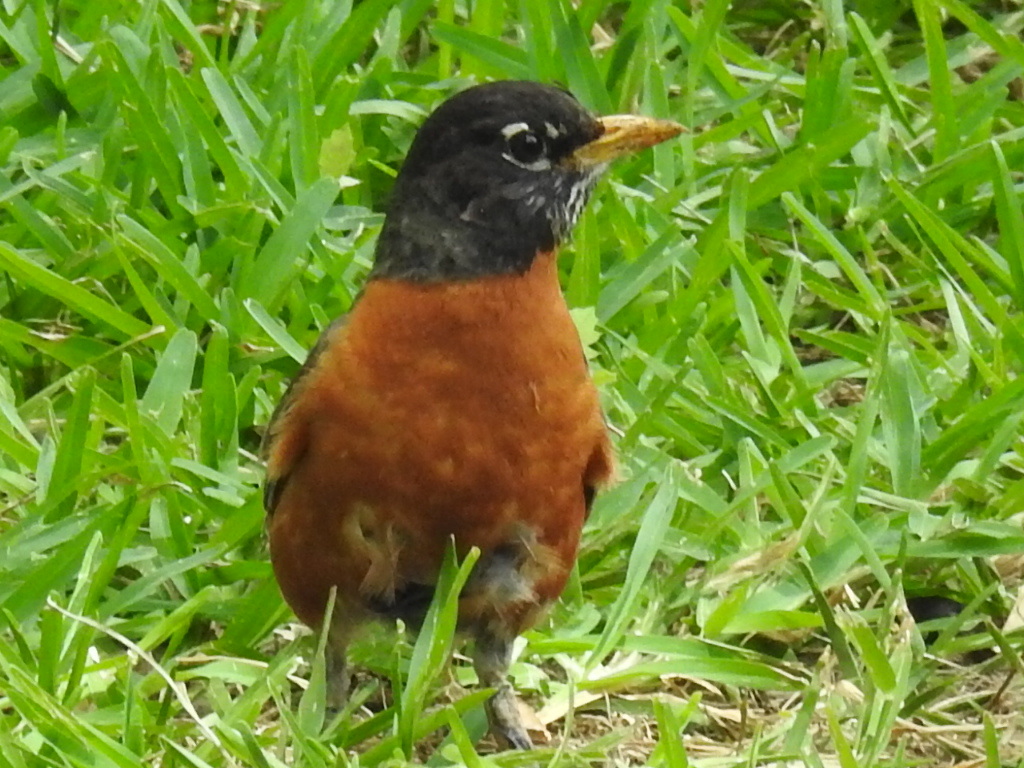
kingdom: Animalia
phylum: Chordata
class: Aves
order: Passeriformes
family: Turdidae
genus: Turdus
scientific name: Turdus migratorius
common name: American robin
